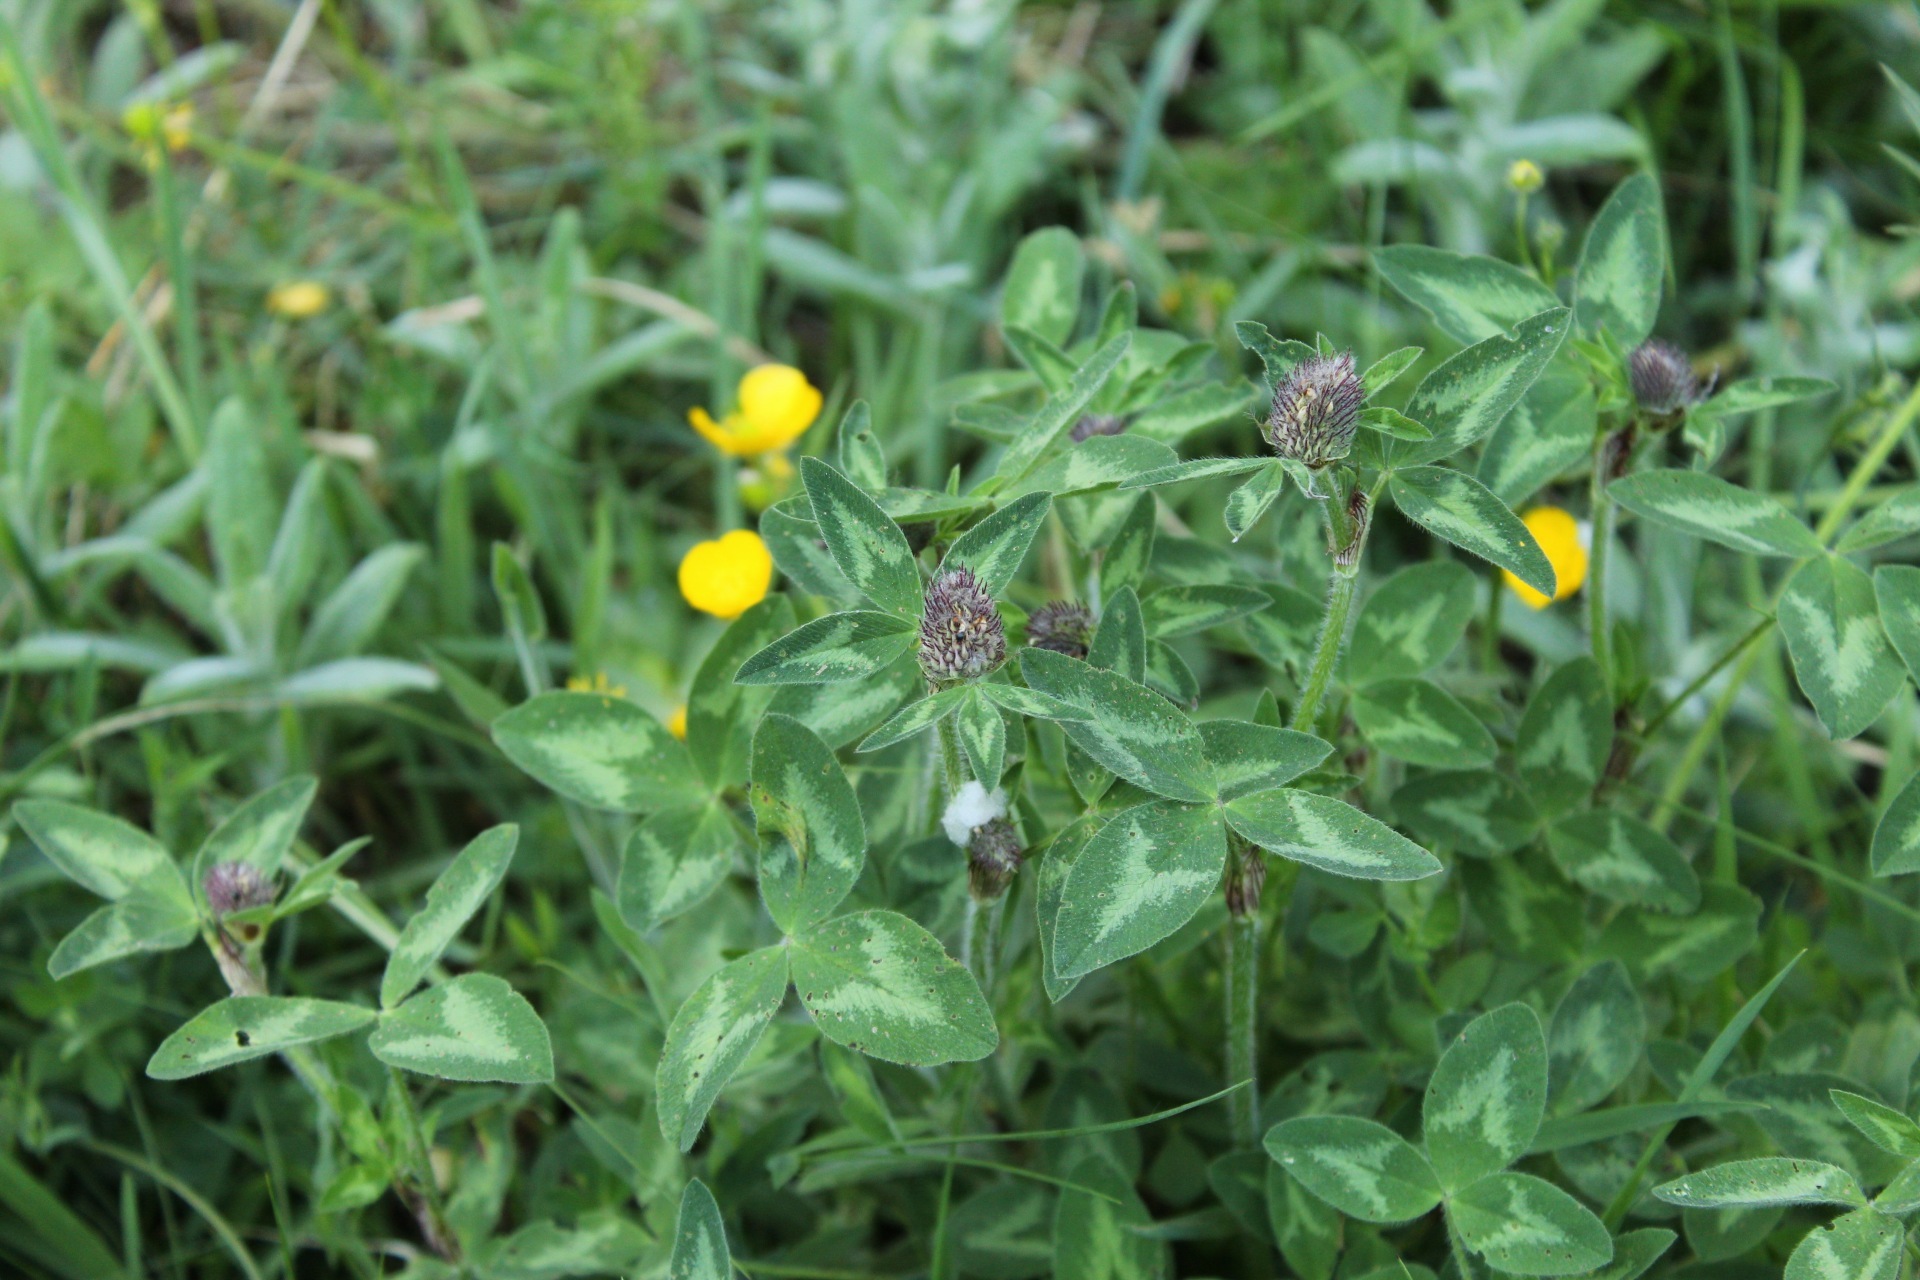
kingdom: Plantae
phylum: Tracheophyta
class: Magnoliopsida
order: Fabales
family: Fabaceae
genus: Trifolium
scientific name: Trifolium pratense
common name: Red clover
